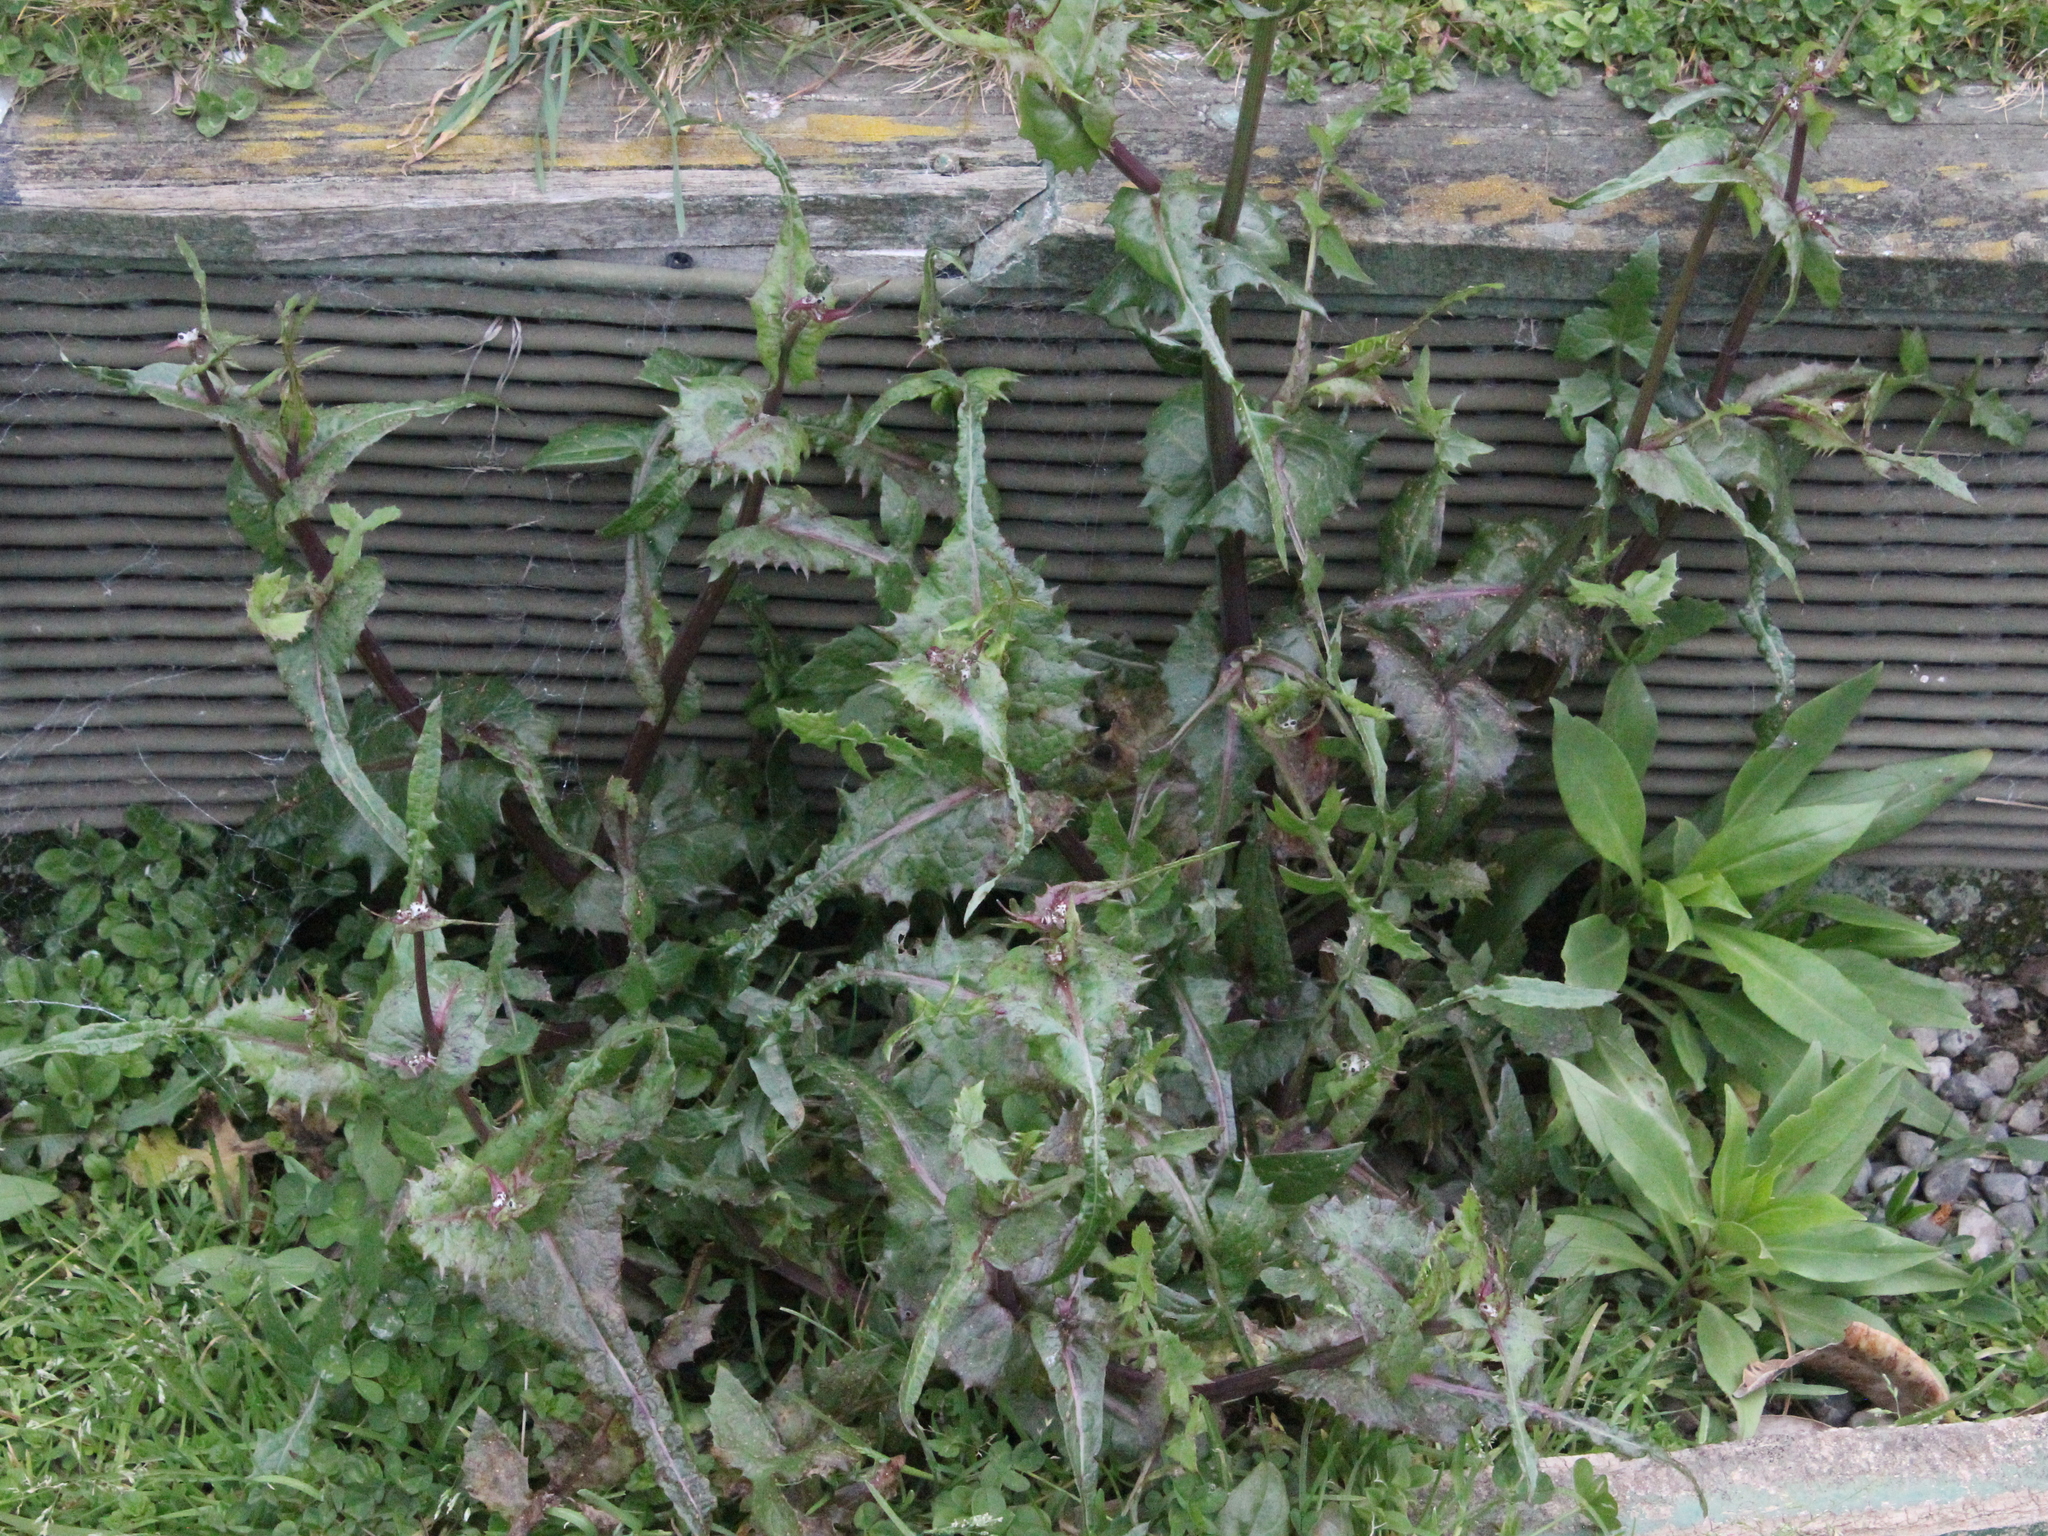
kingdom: Plantae
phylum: Tracheophyta
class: Magnoliopsida
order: Asterales
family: Asteraceae
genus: Sonchus
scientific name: Sonchus oleraceus
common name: Common sowthistle
